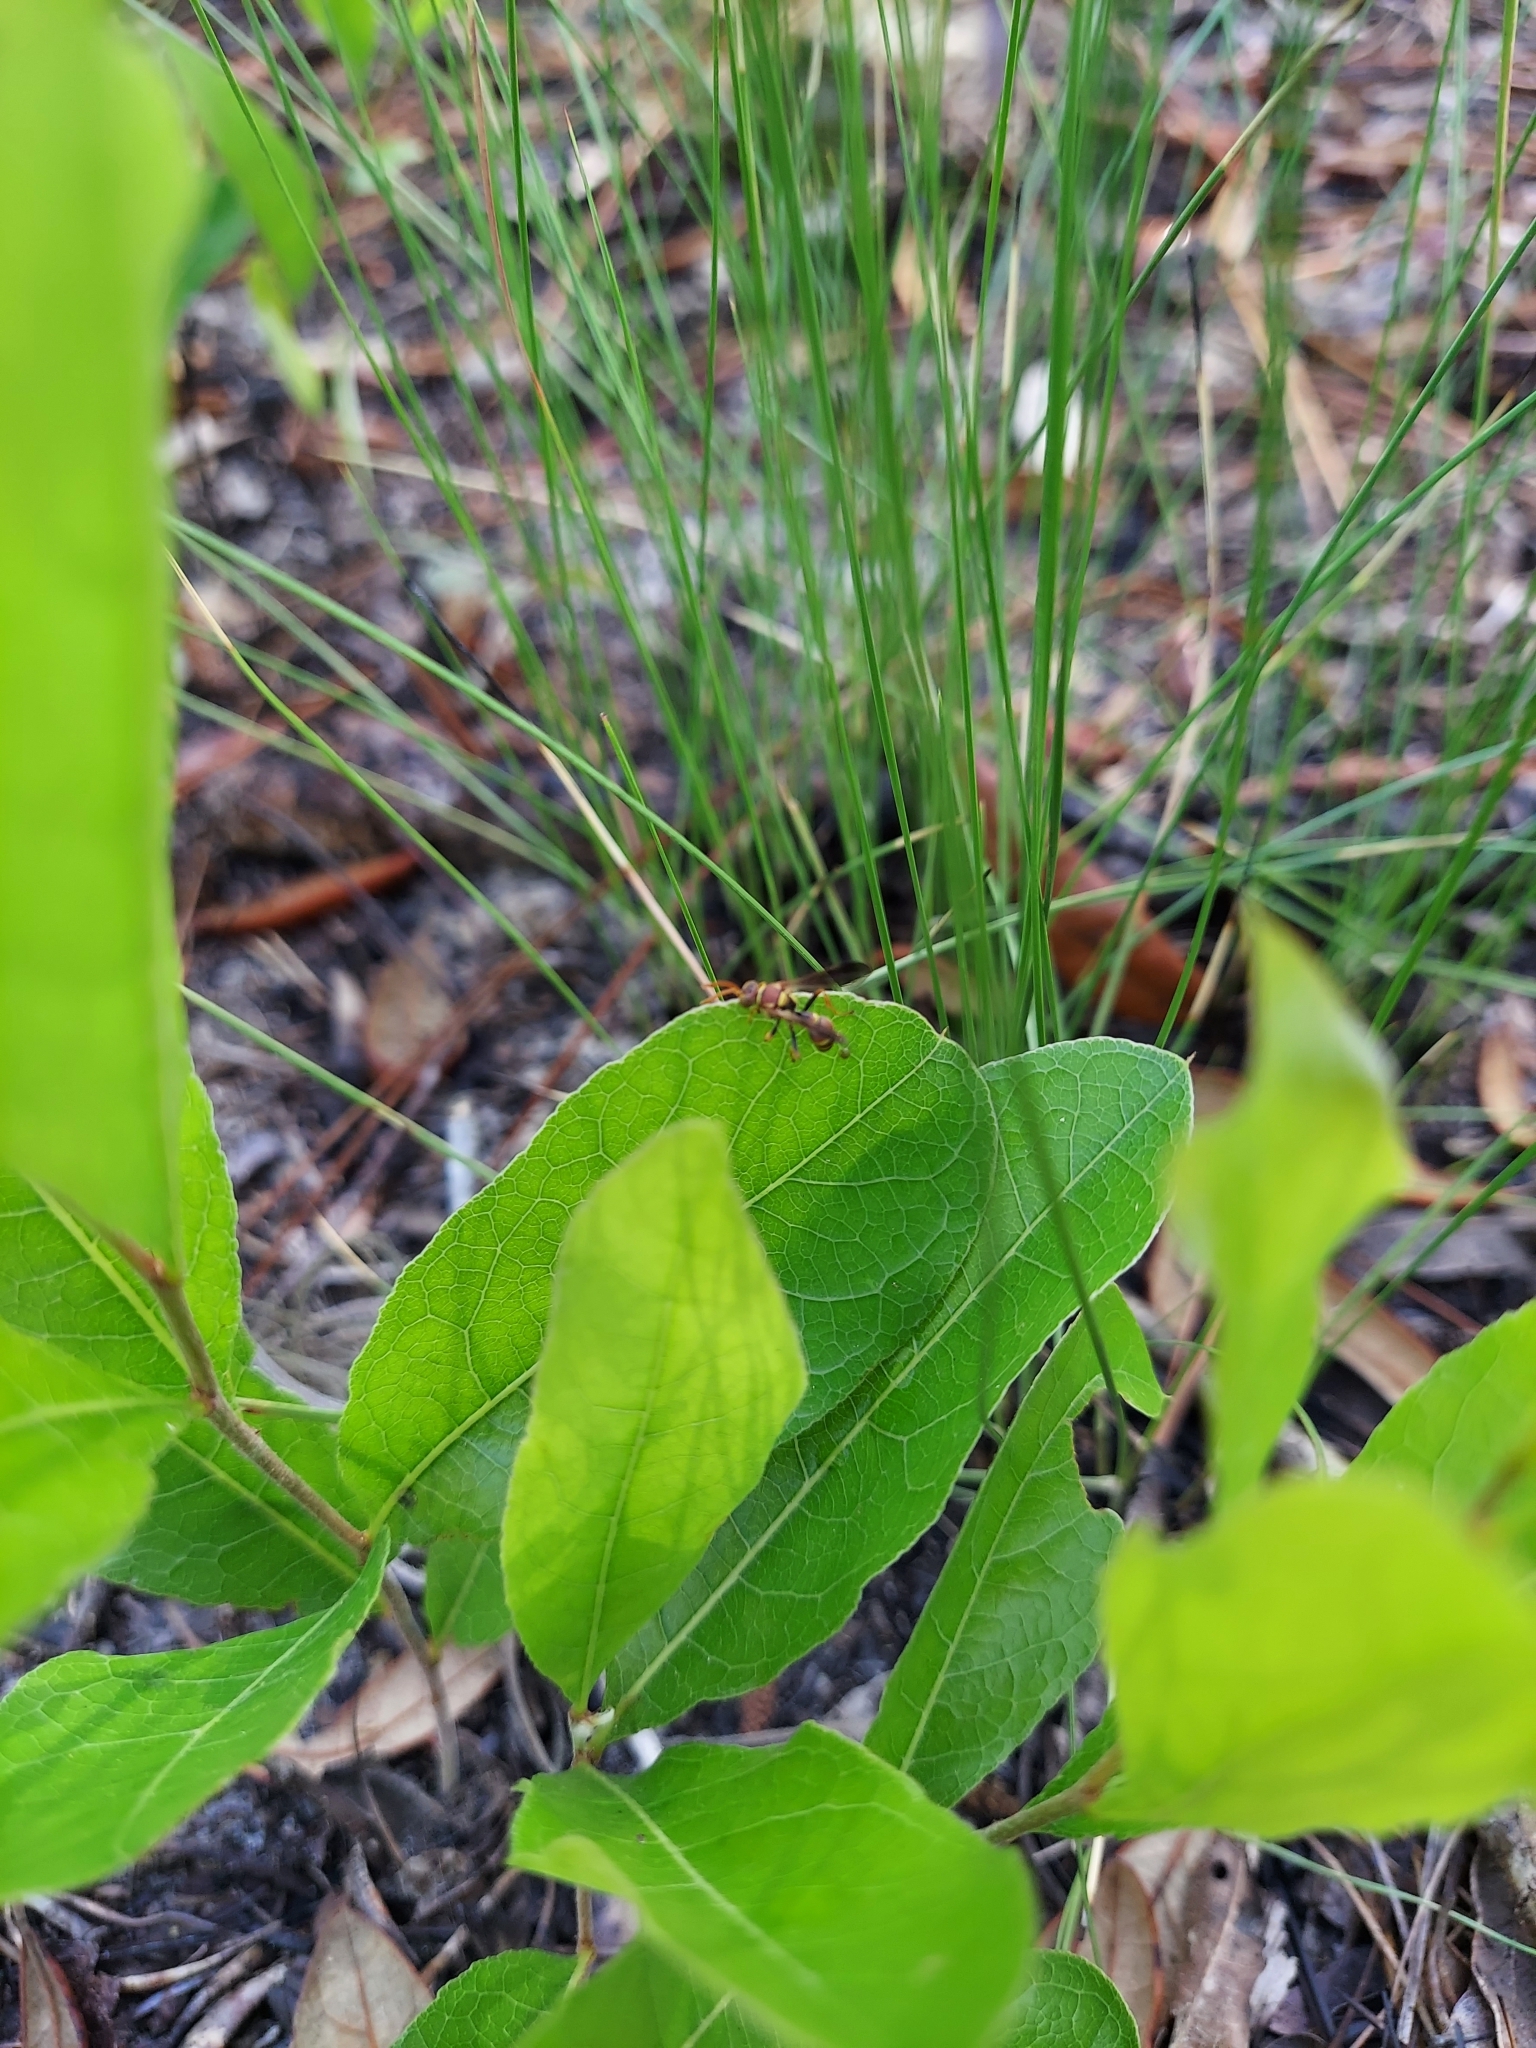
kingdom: Animalia
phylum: Arthropoda
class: Insecta
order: Hymenoptera
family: Crabronidae
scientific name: Crabronidae
